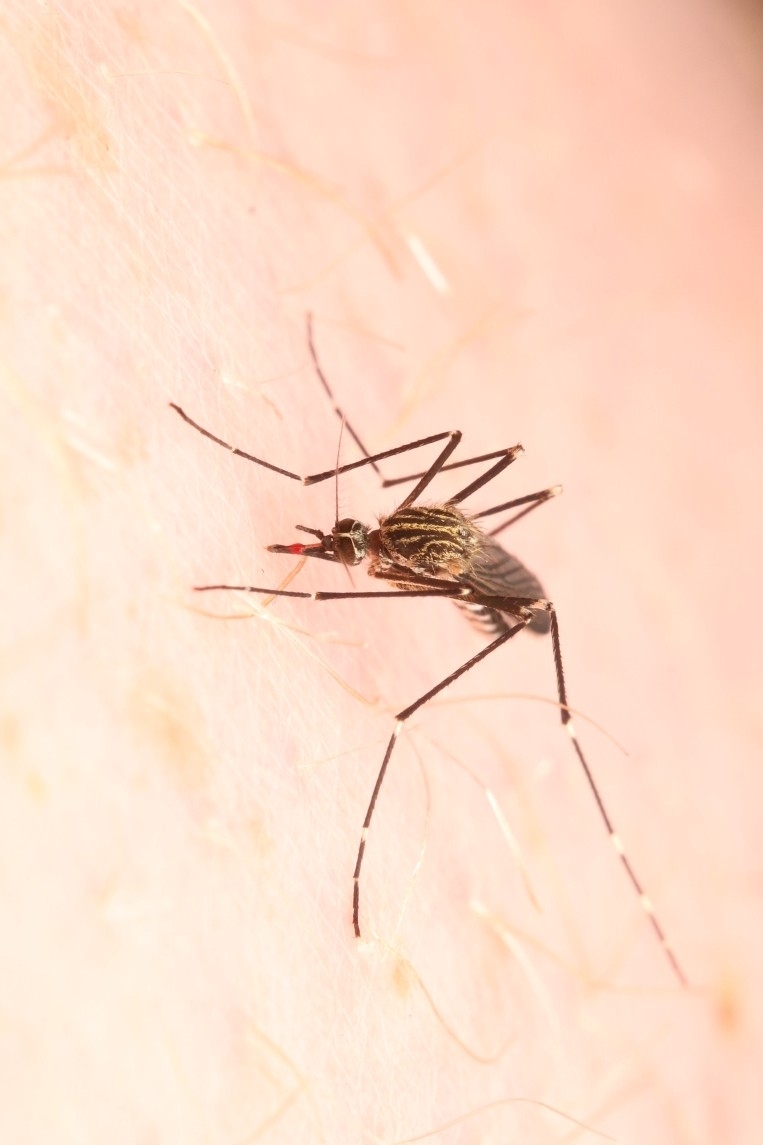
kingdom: Animalia
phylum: Arthropoda
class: Insecta
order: Diptera
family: Culicidae
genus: Aedes
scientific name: Aedes japonicus
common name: Asian bush mosquito
